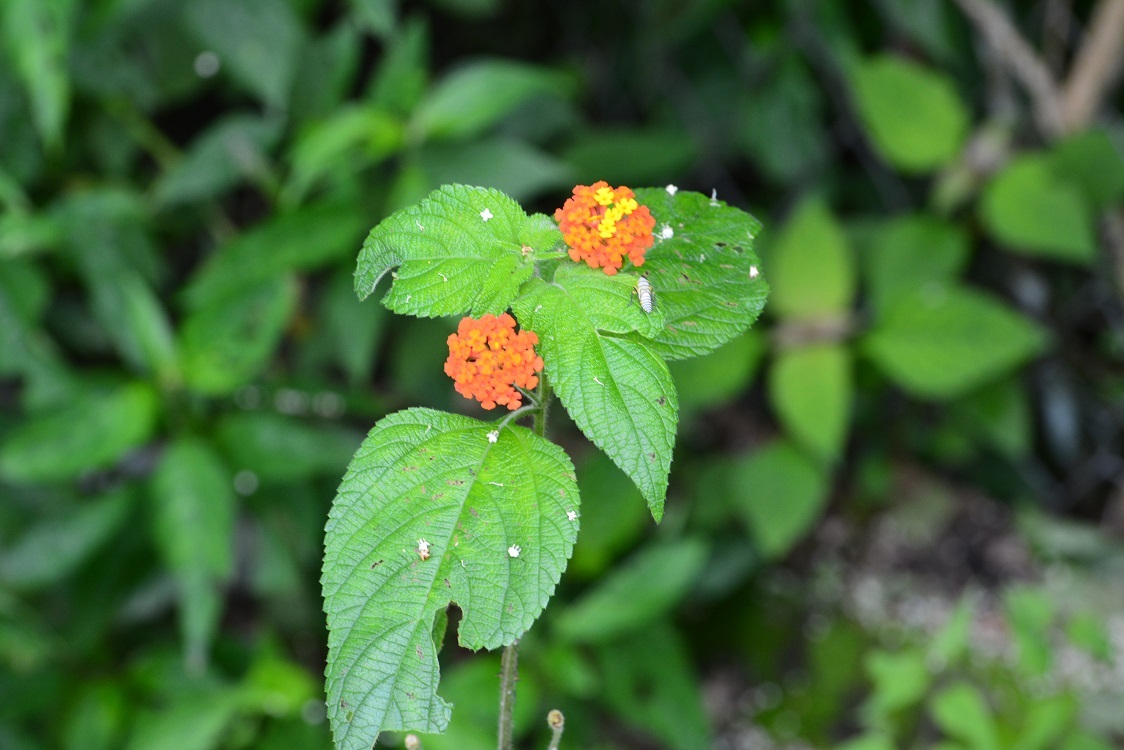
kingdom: Plantae
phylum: Tracheophyta
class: Magnoliopsida
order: Lamiales
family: Verbenaceae
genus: Lantana
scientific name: Lantana camara
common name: Lantana
